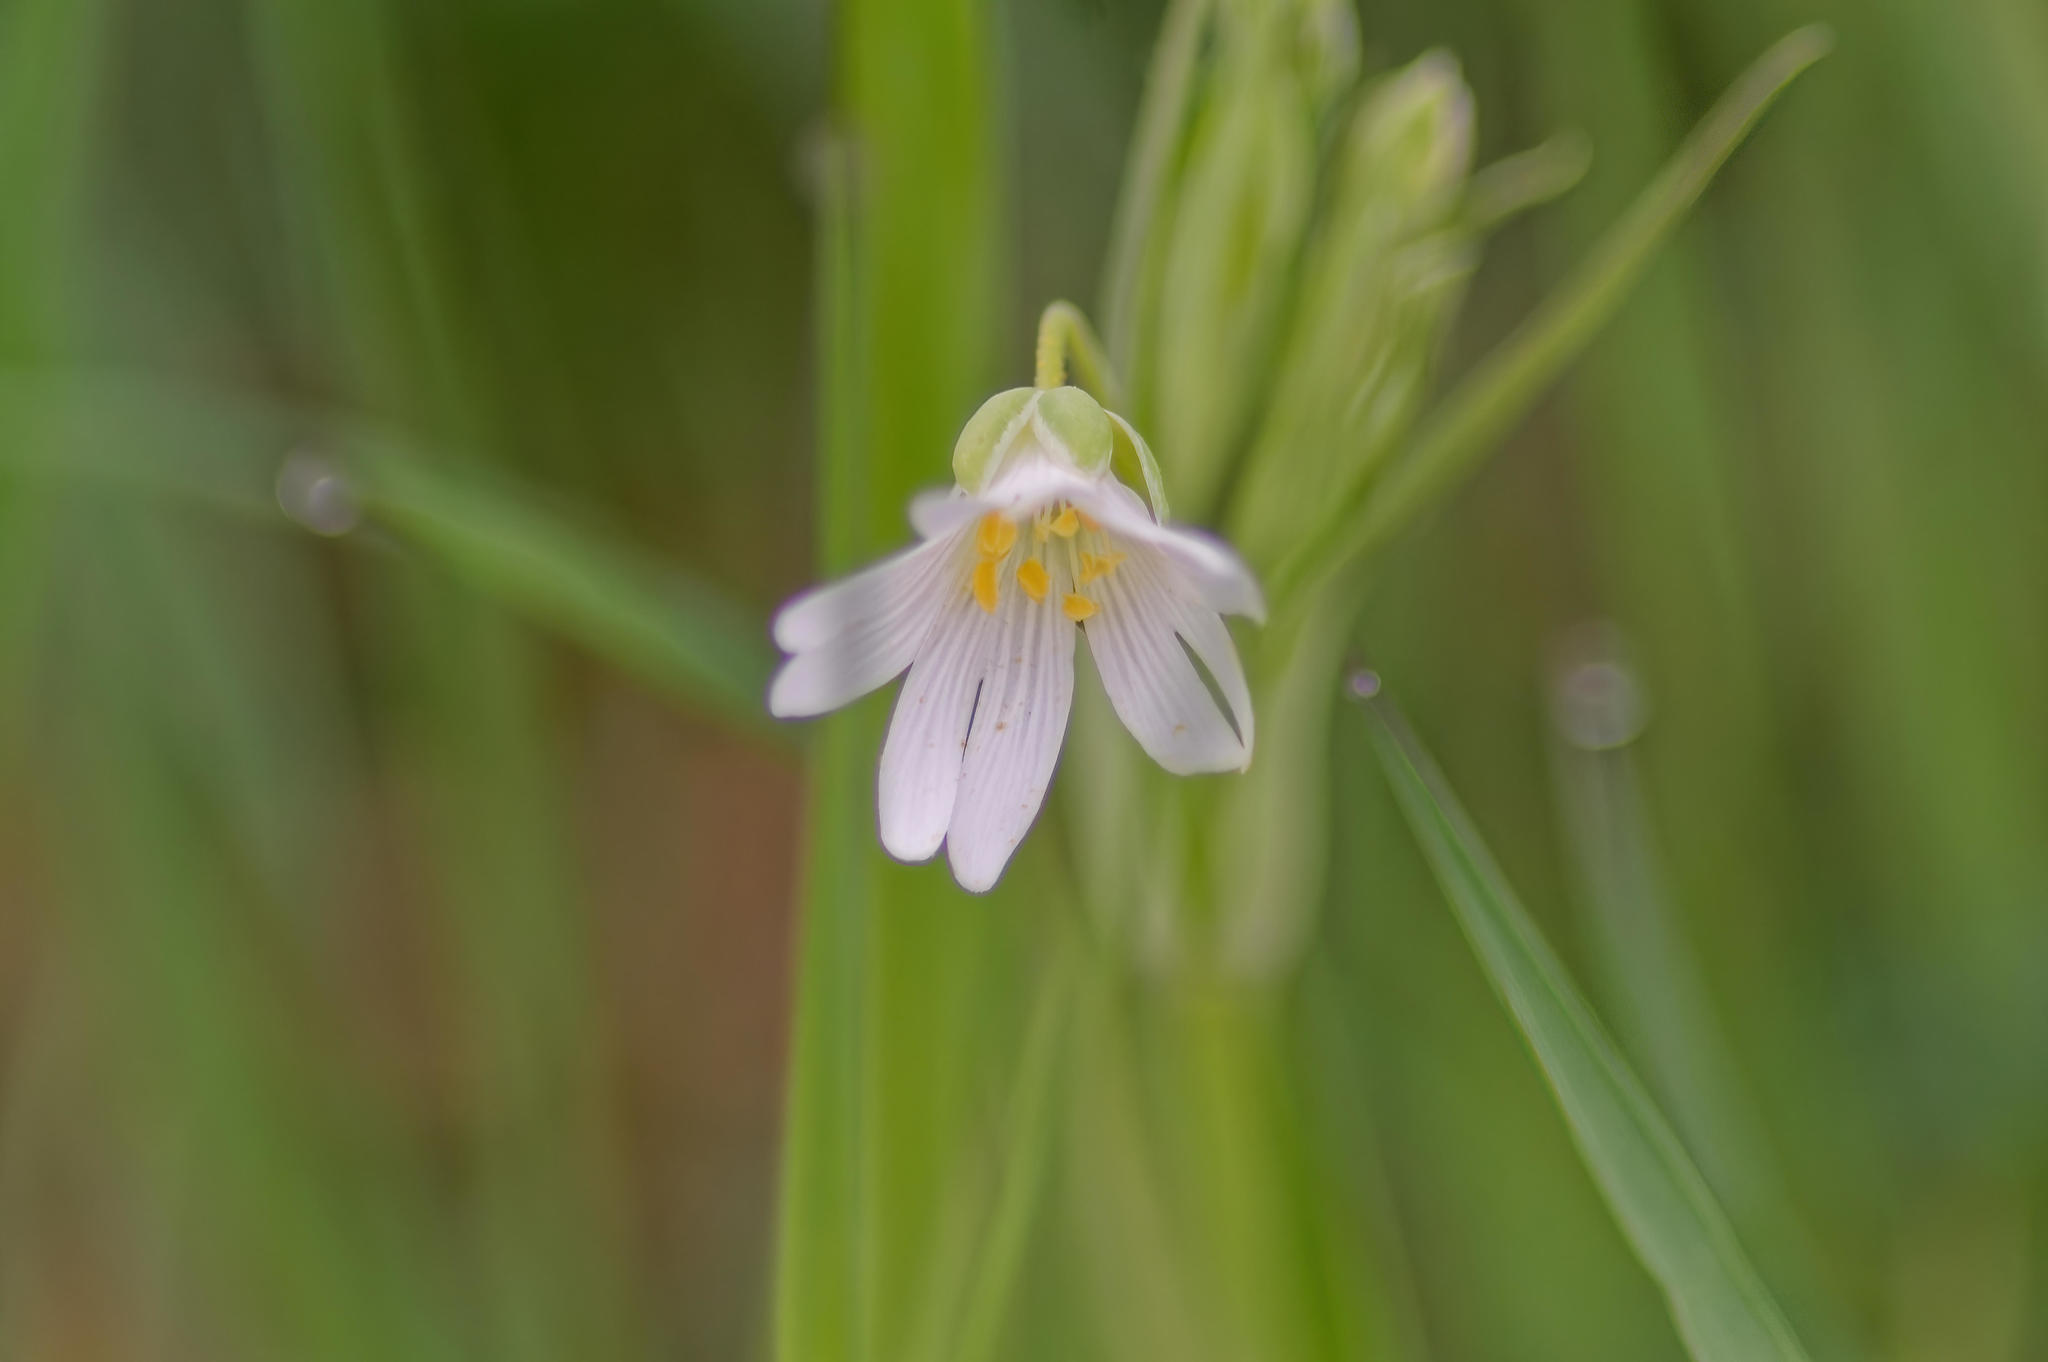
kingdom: Plantae
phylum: Tracheophyta
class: Magnoliopsida
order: Caryophyllales
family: Caryophyllaceae
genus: Rabelera
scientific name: Rabelera holostea
